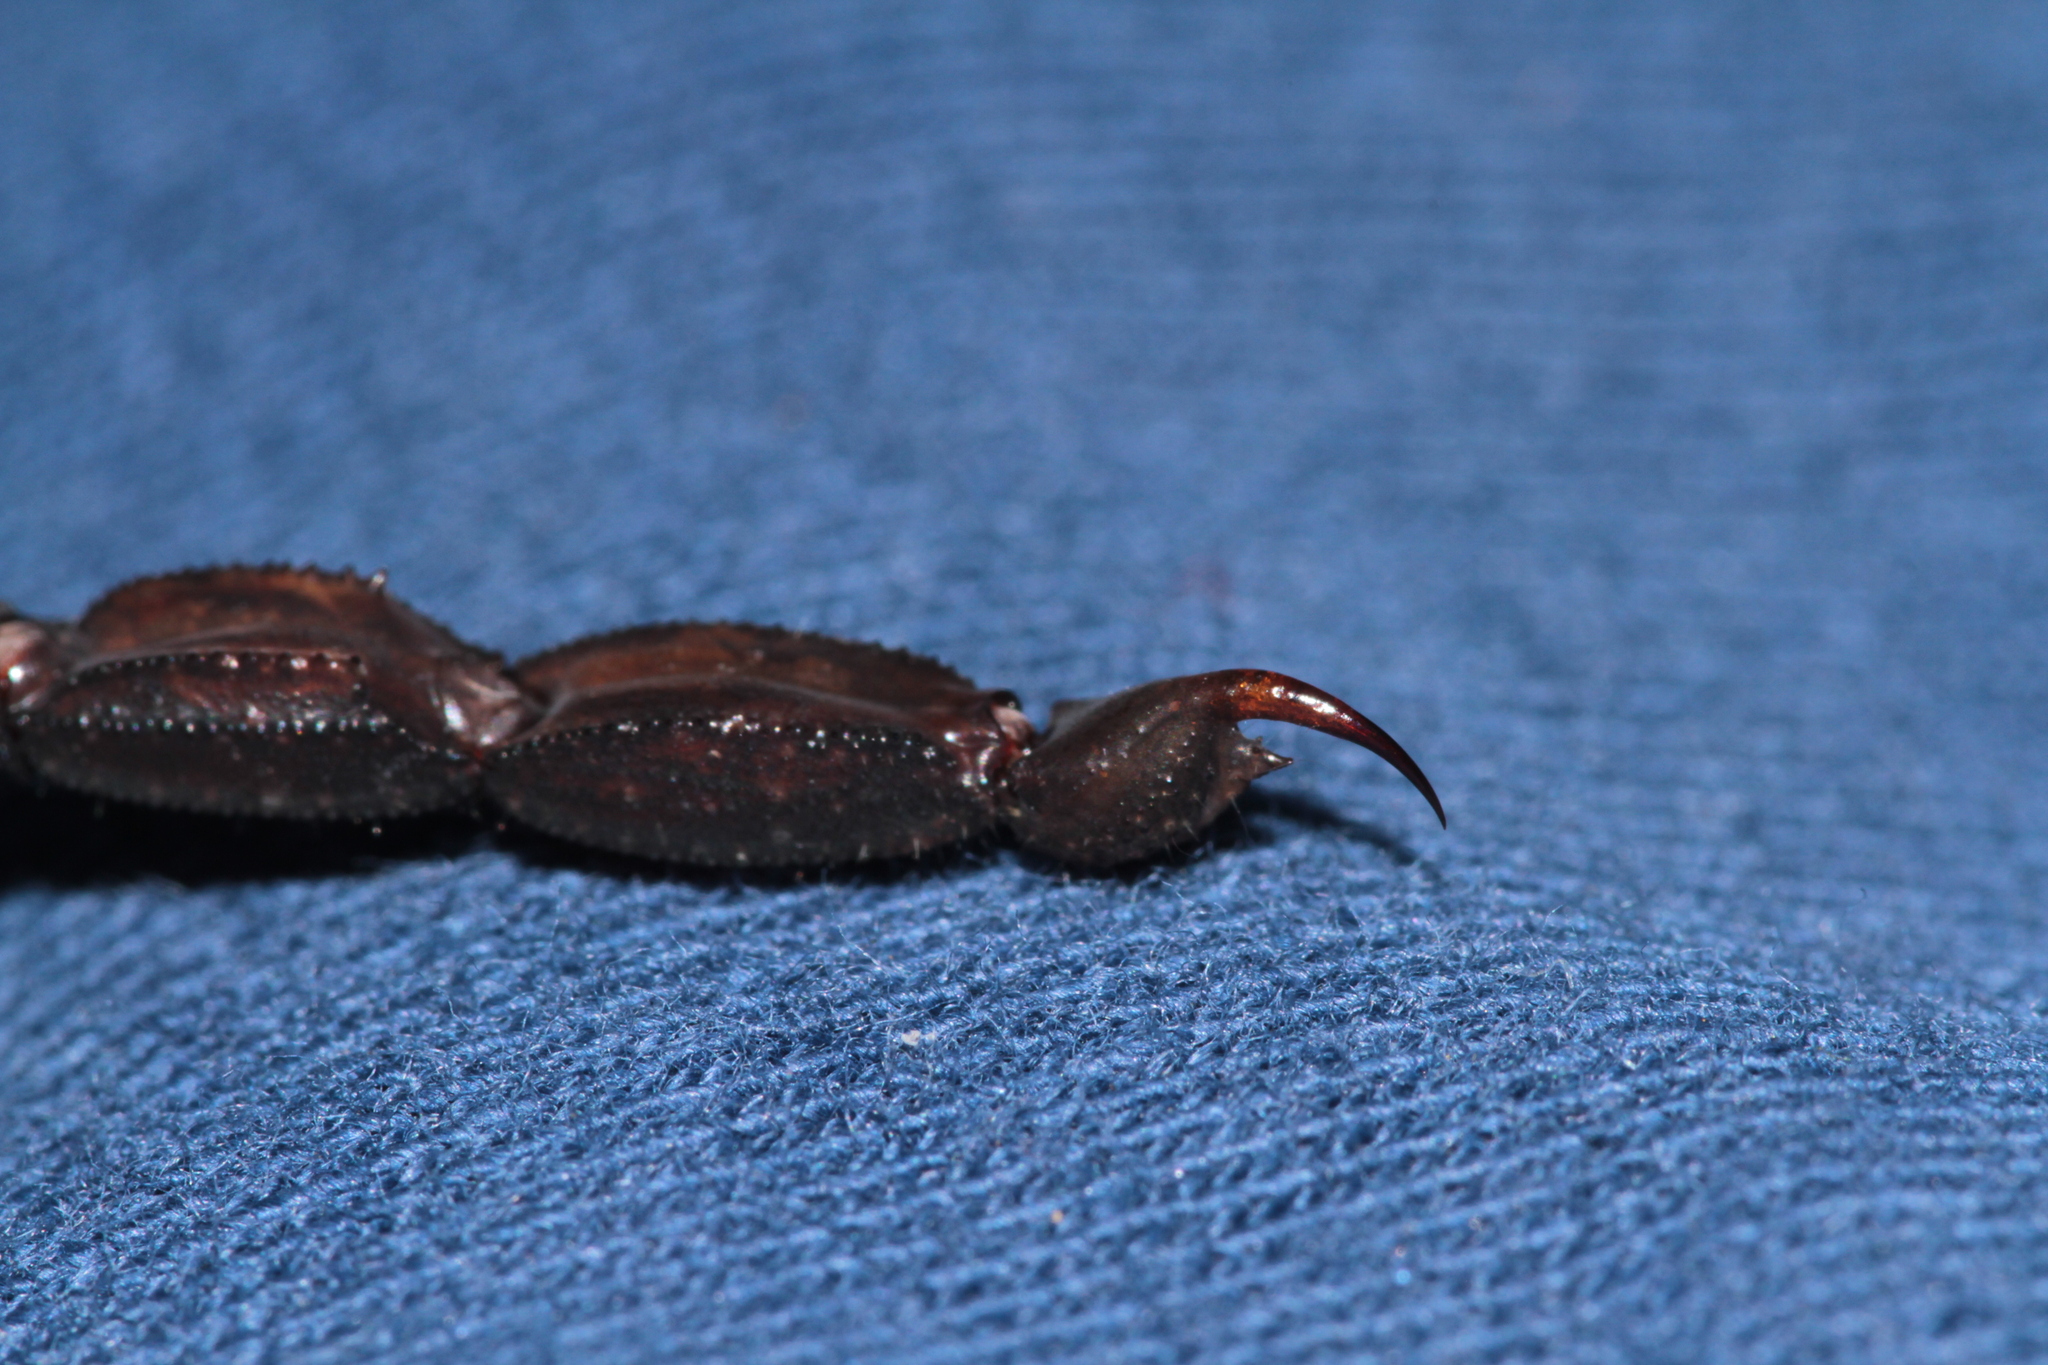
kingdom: Animalia
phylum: Arthropoda
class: Arachnida
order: Scorpiones
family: Buthidae
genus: Tityus
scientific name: Tityus obscurus
